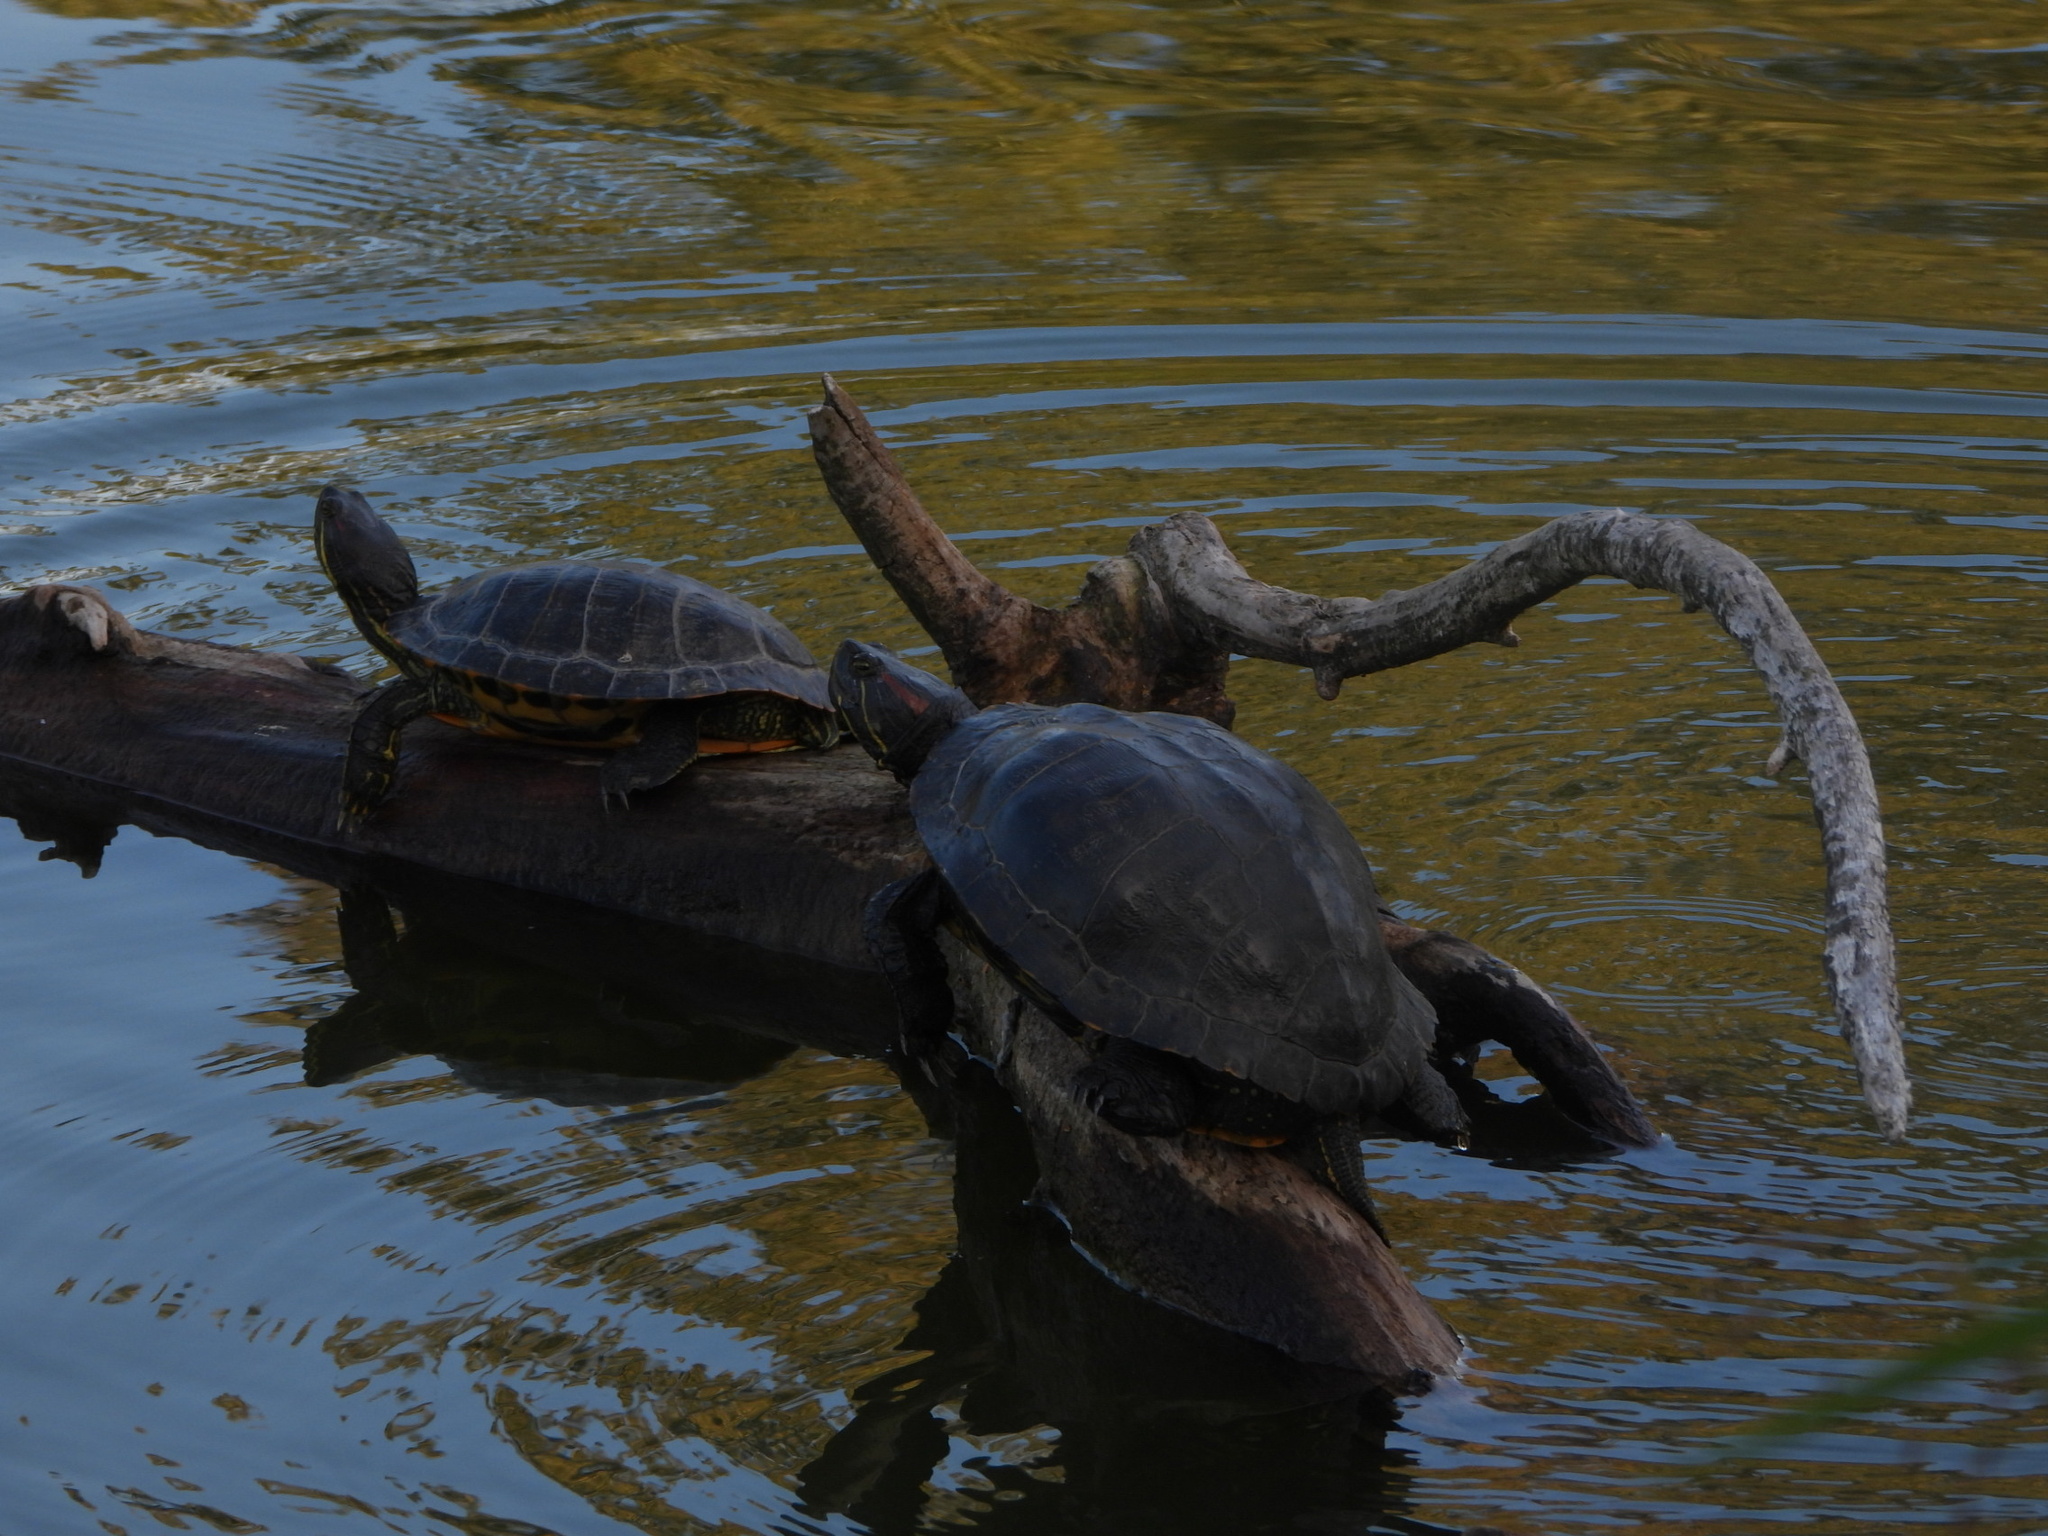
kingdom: Animalia
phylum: Chordata
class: Testudines
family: Emydidae
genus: Trachemys
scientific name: Trachemys scripta
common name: Slider
